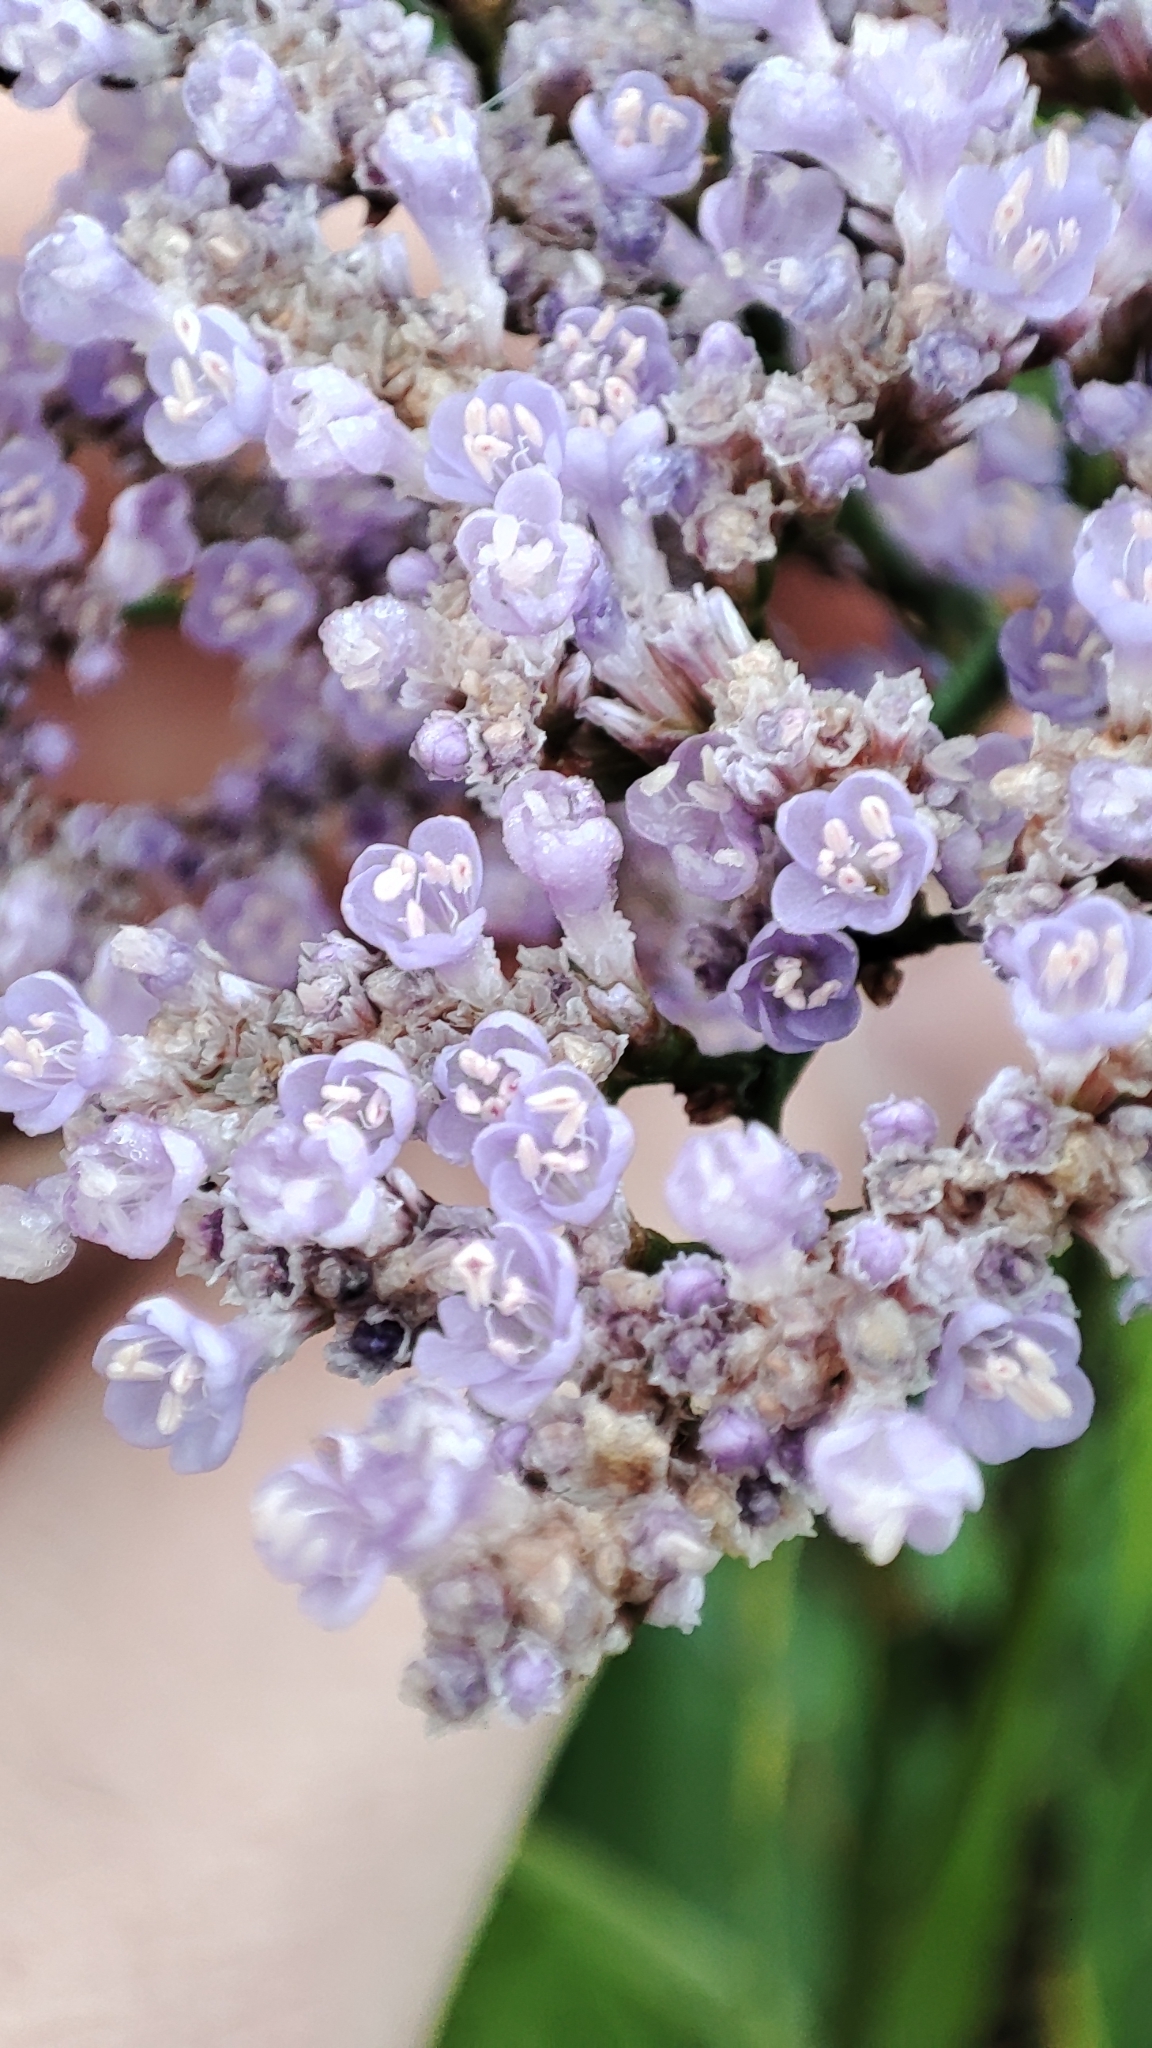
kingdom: Plantae
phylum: Tracheophyta
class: Magnoliopsida
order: Caryophyllales
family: Plumbaginaceae
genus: Limonium
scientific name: Limonium gmelini
